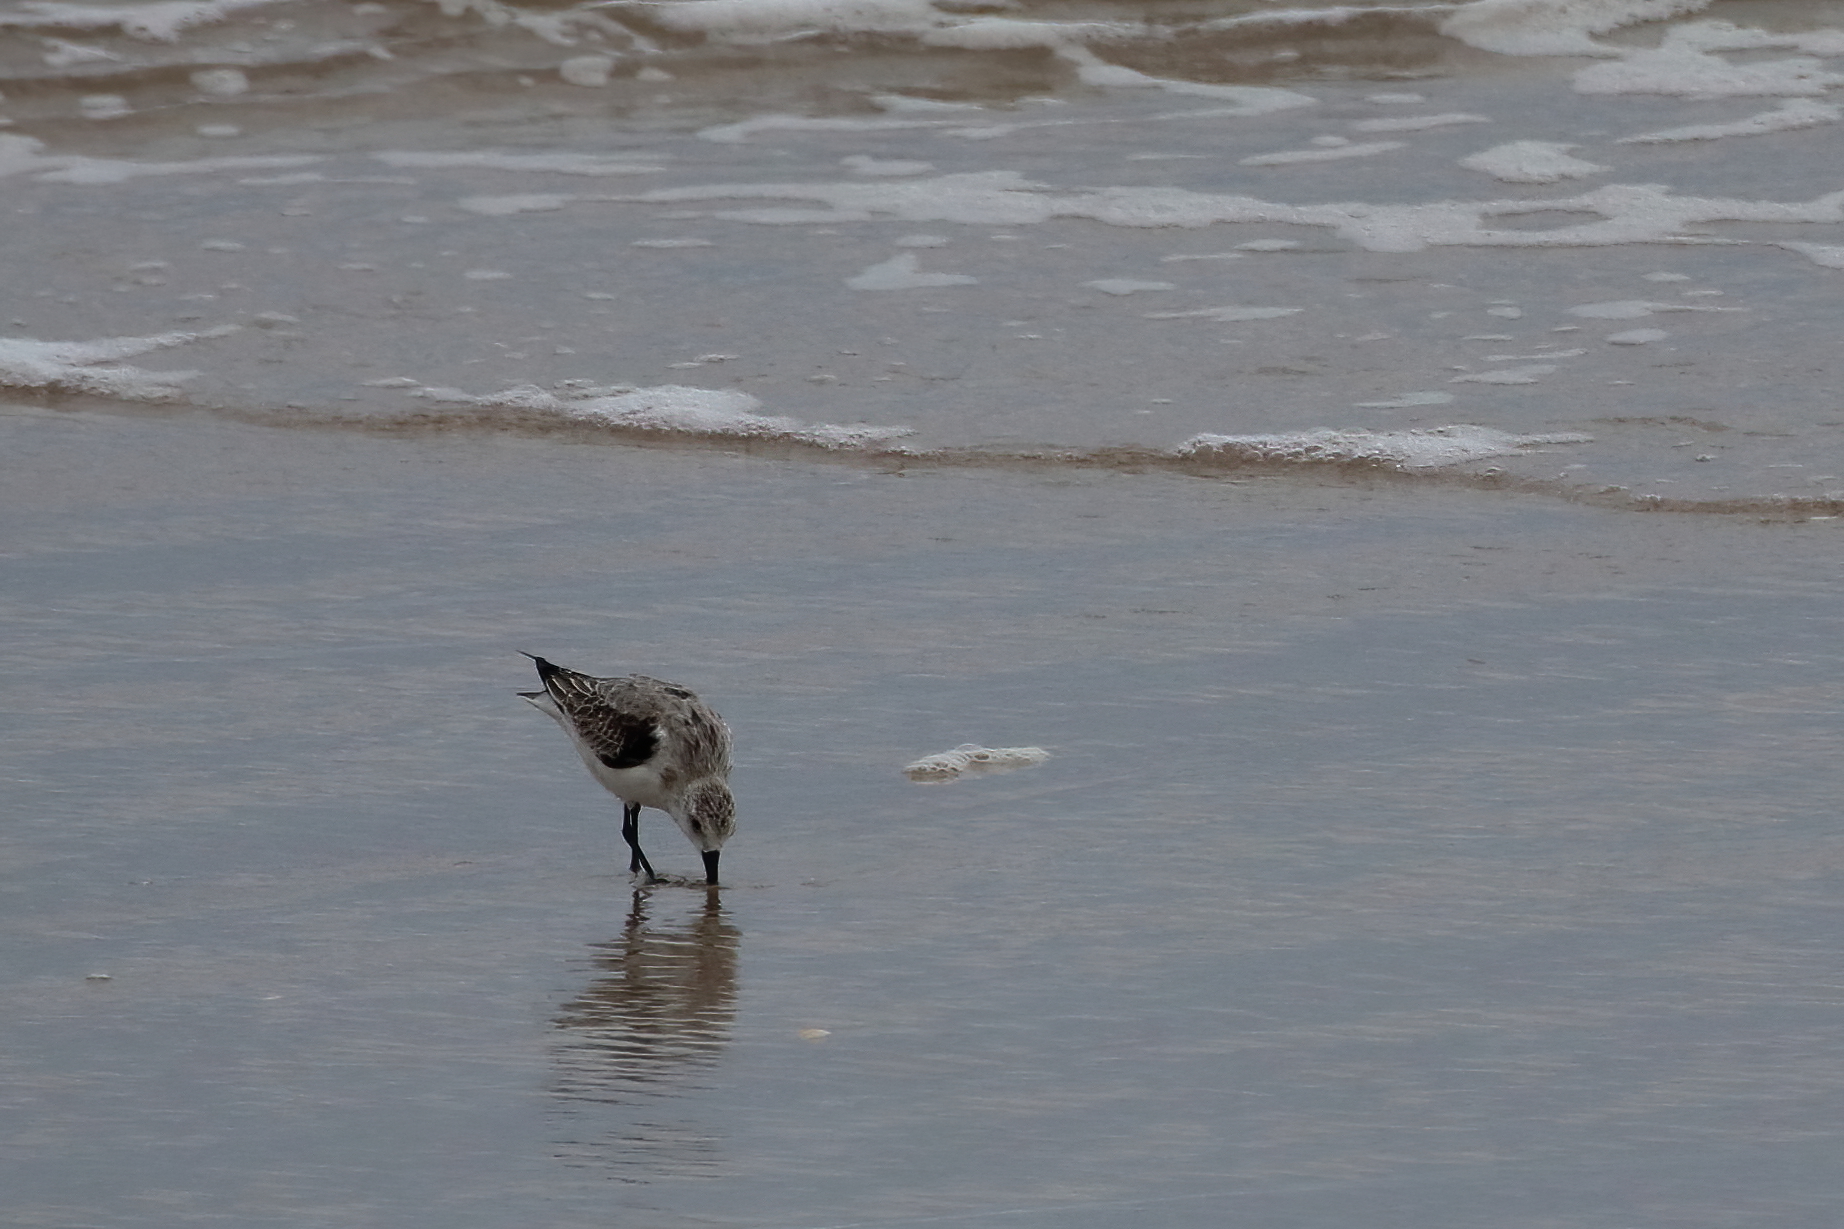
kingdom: Animalia
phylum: Chordata
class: Aves
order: Charadriiformes
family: Scolopacidae
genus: Calidris
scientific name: Calidris alba
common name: Sanderling
